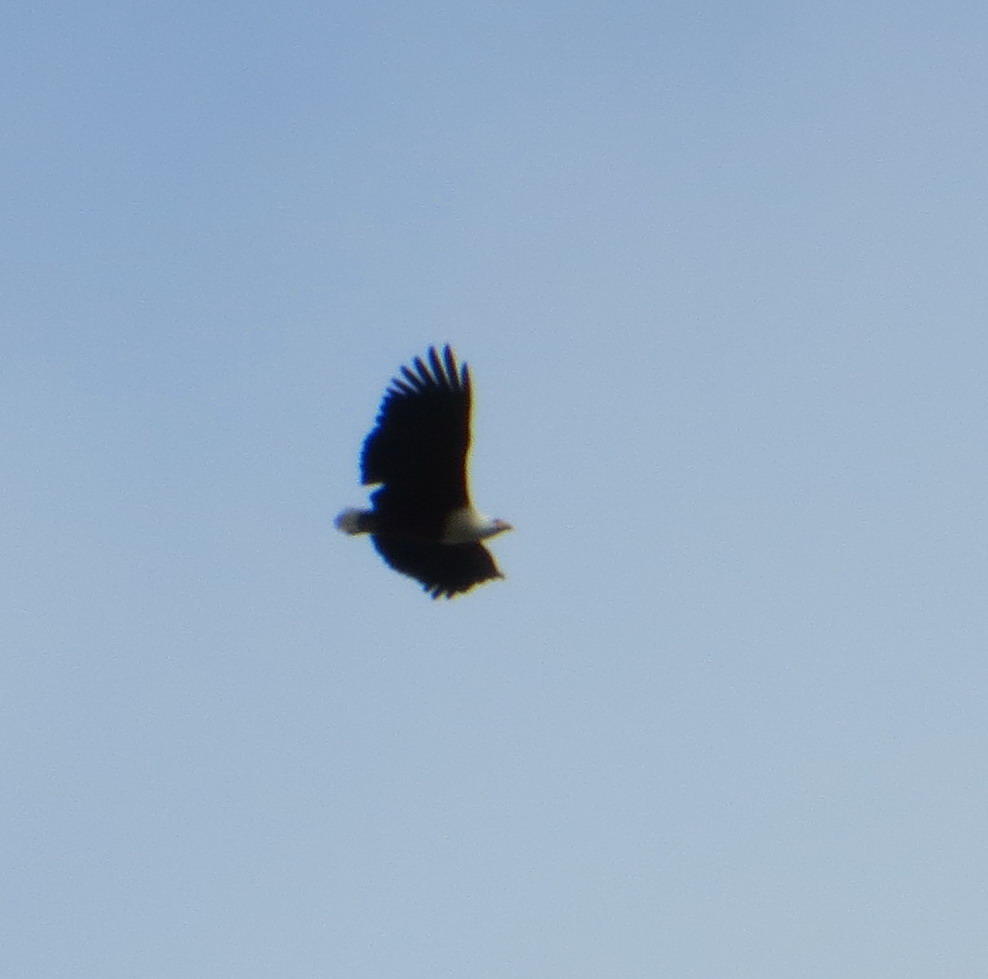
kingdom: Animalia
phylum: Chordata
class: Aves
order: Accipitriformes
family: Accipitridae
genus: Haliaeetus
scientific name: Haliaeetus vocifer
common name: African fish eagle
